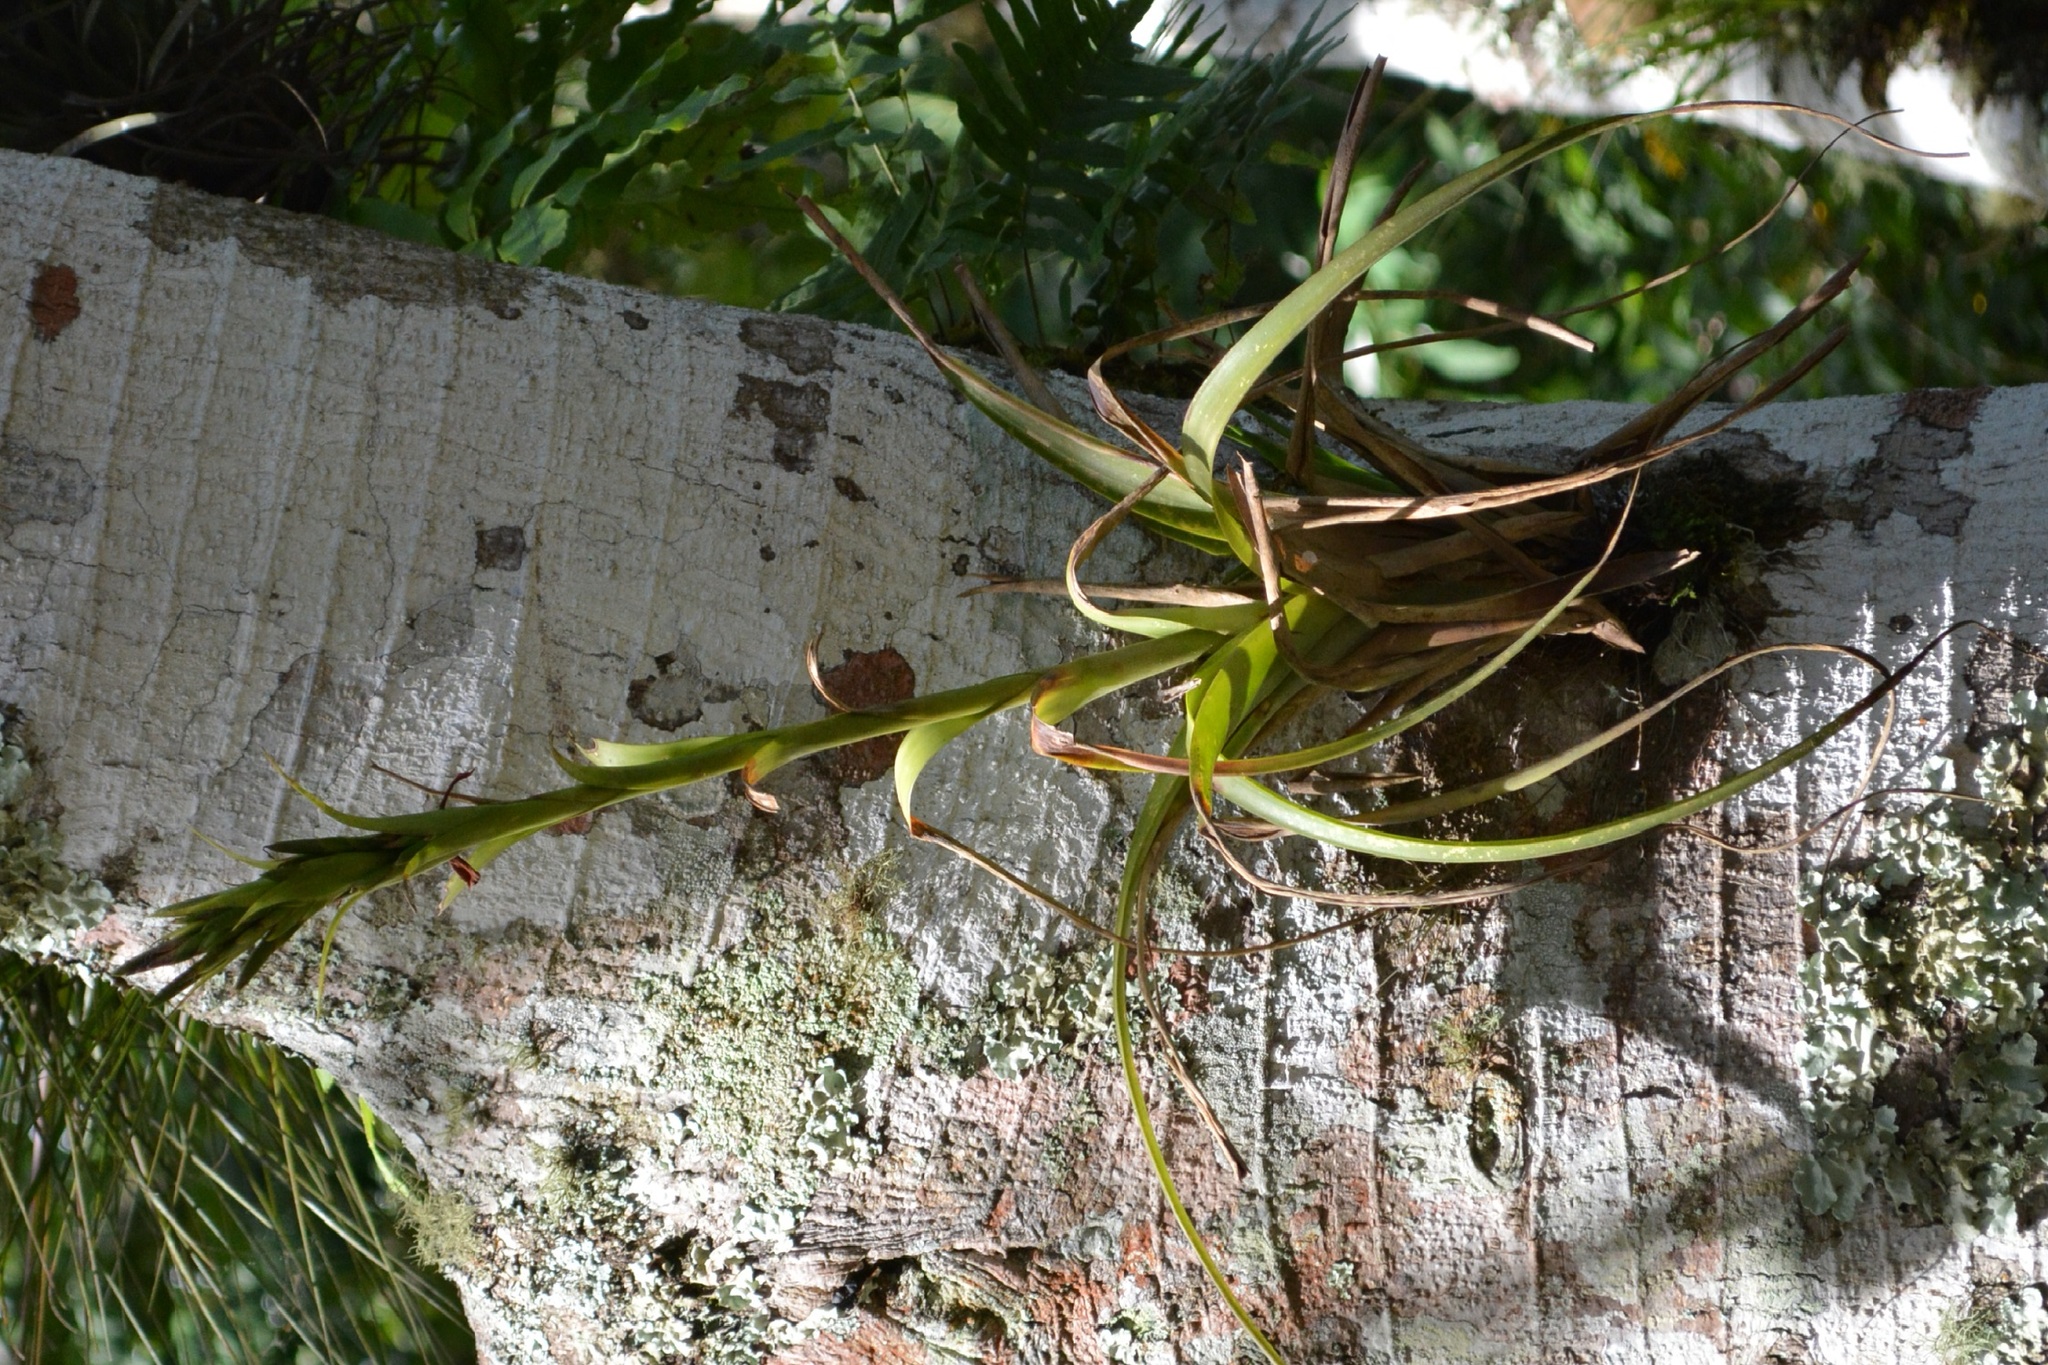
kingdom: Plantae
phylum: Tracheophyta
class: Liliopsida
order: Poales
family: Bromeliaceae
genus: Tillandsia
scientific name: Tillandsia polystachia
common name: Airplant
